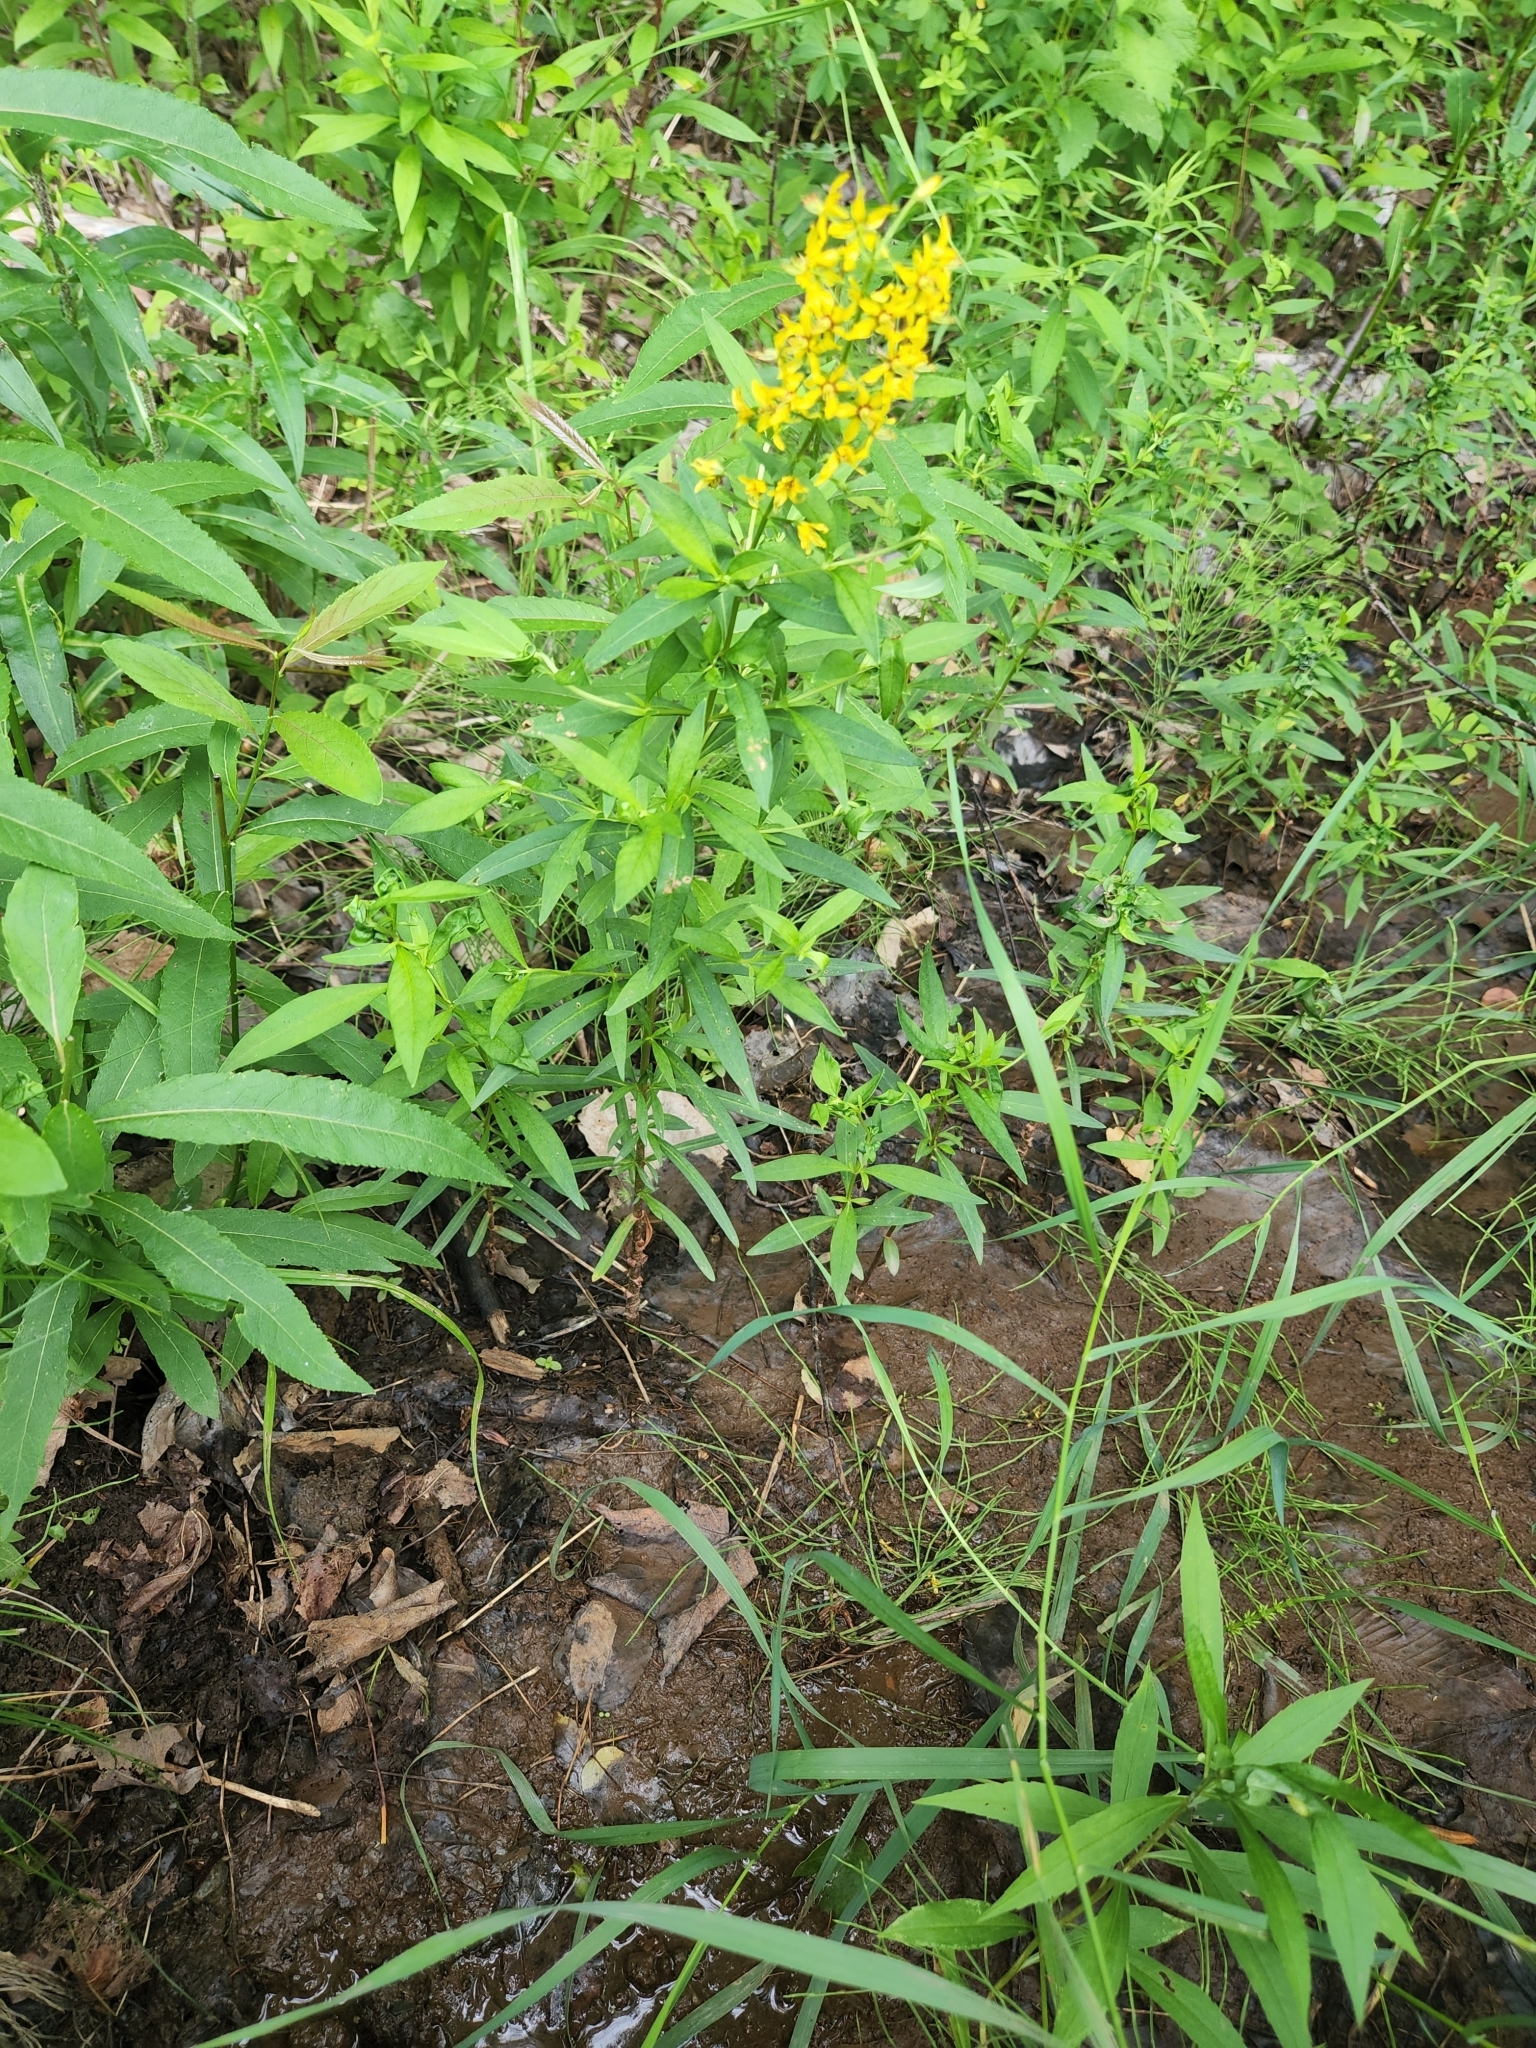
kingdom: Plantae
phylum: Tracheophyta
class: Magnoliopsida
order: Ericales
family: Primulaceae
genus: Lysimachia
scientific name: Lysimachia terrestris
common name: Lake loosestrife
